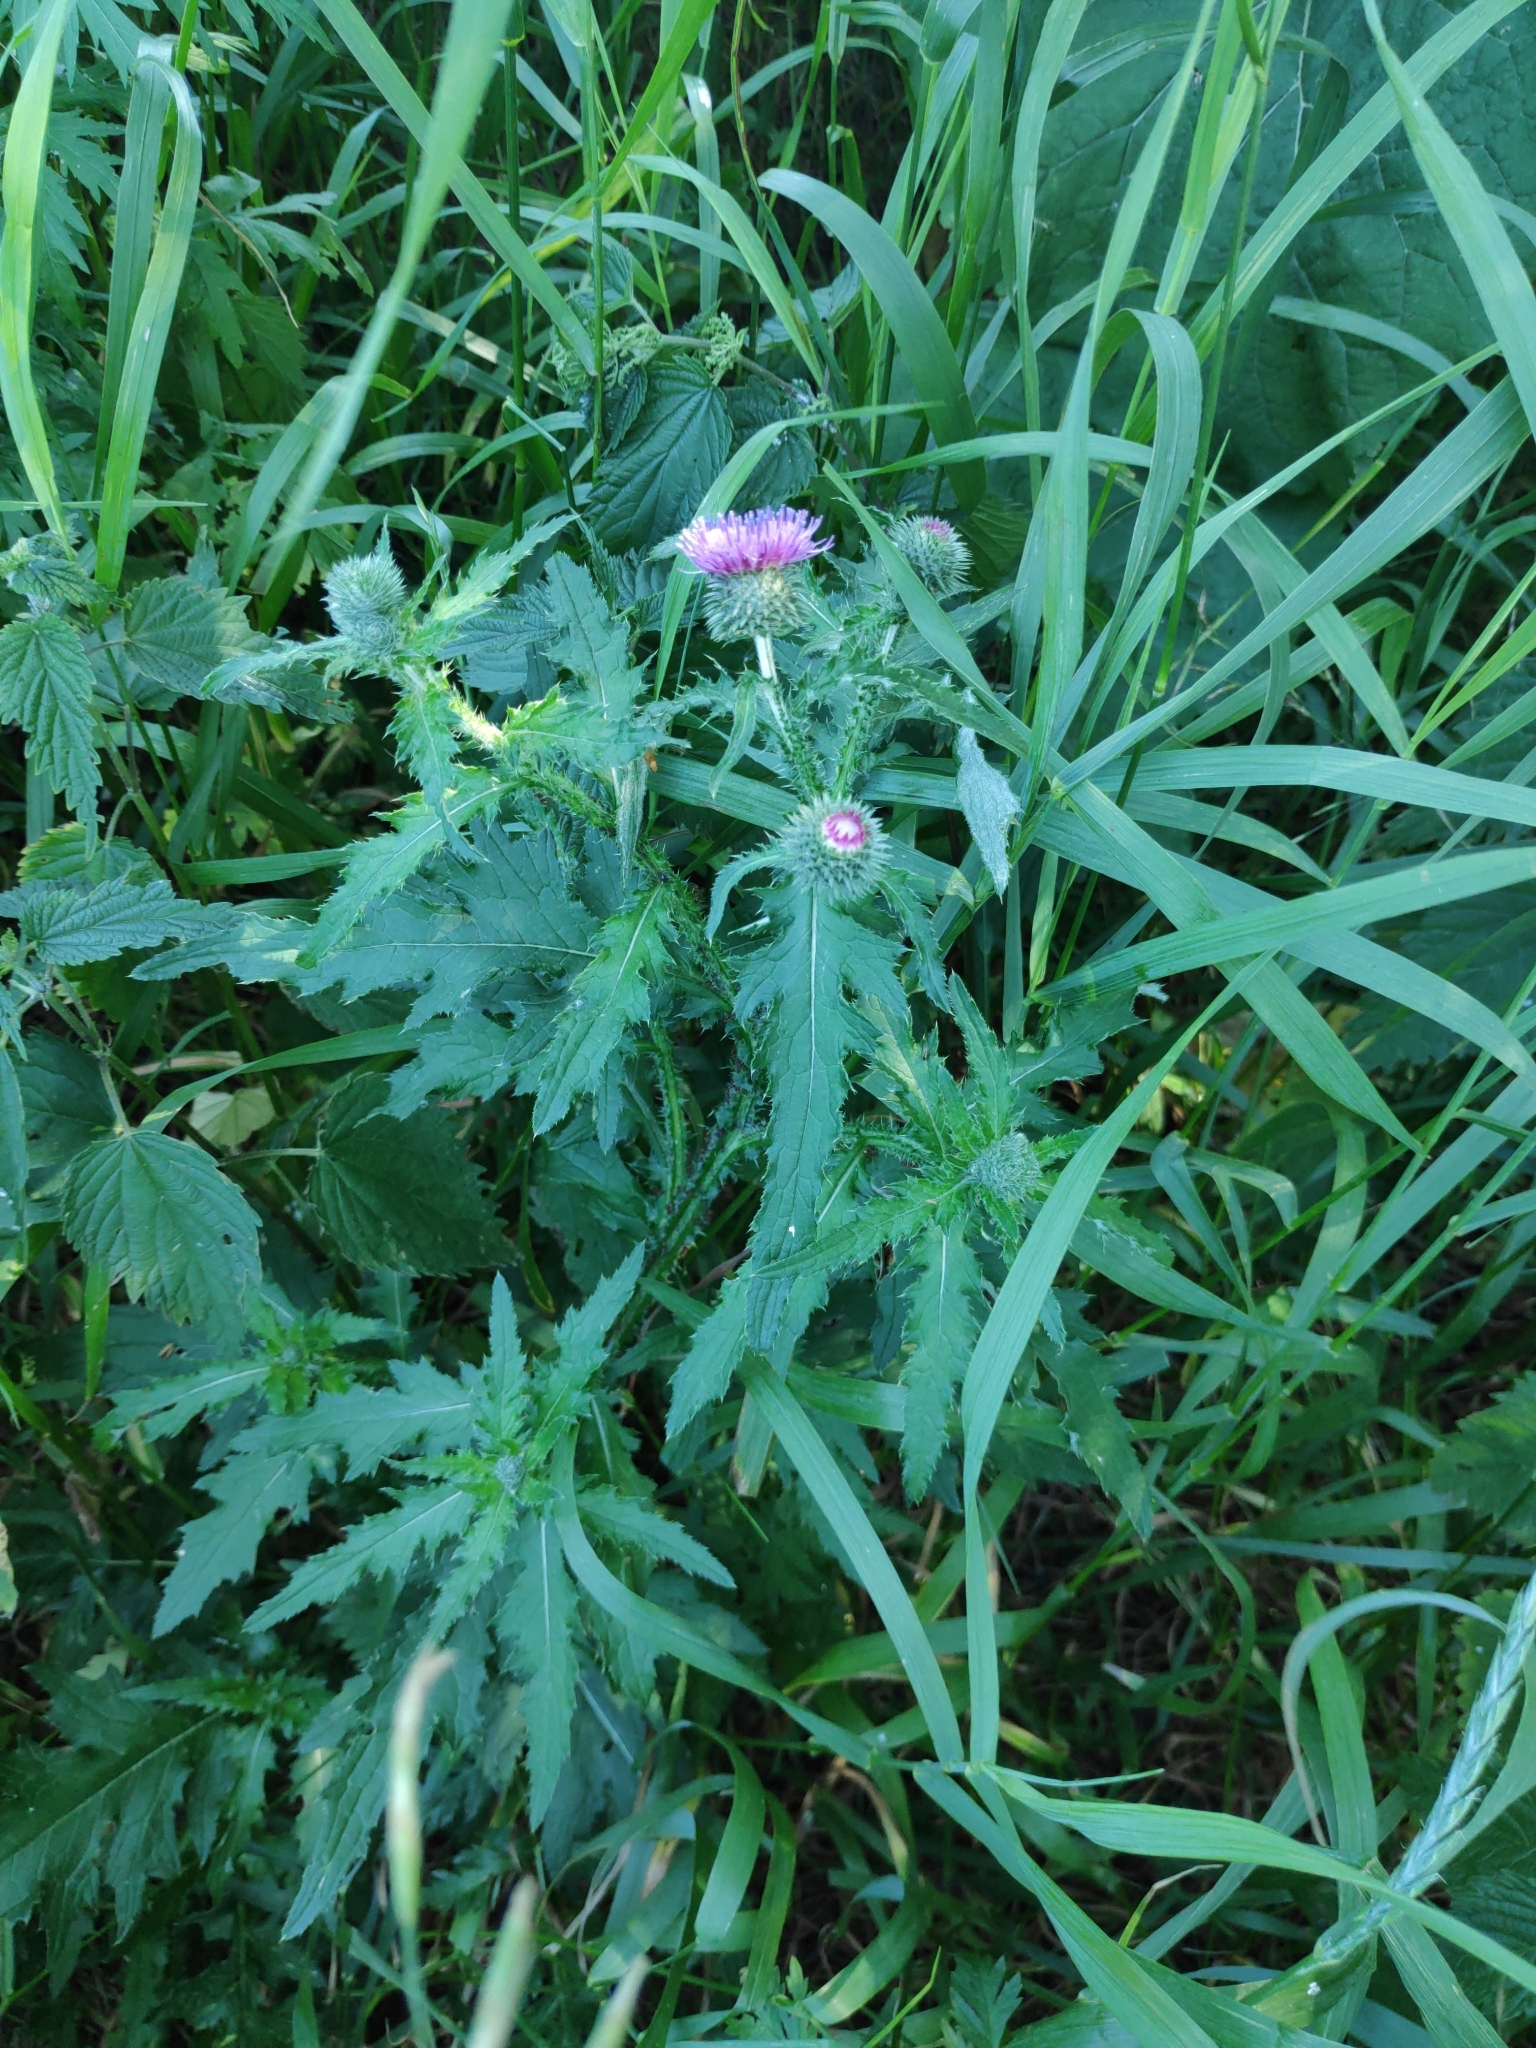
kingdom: Plantae
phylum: Tracheophyta
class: Magnoliopsida
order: Asterales
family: Asteraceae
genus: Carduus
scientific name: Carduus crispus
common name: Welted thistle
